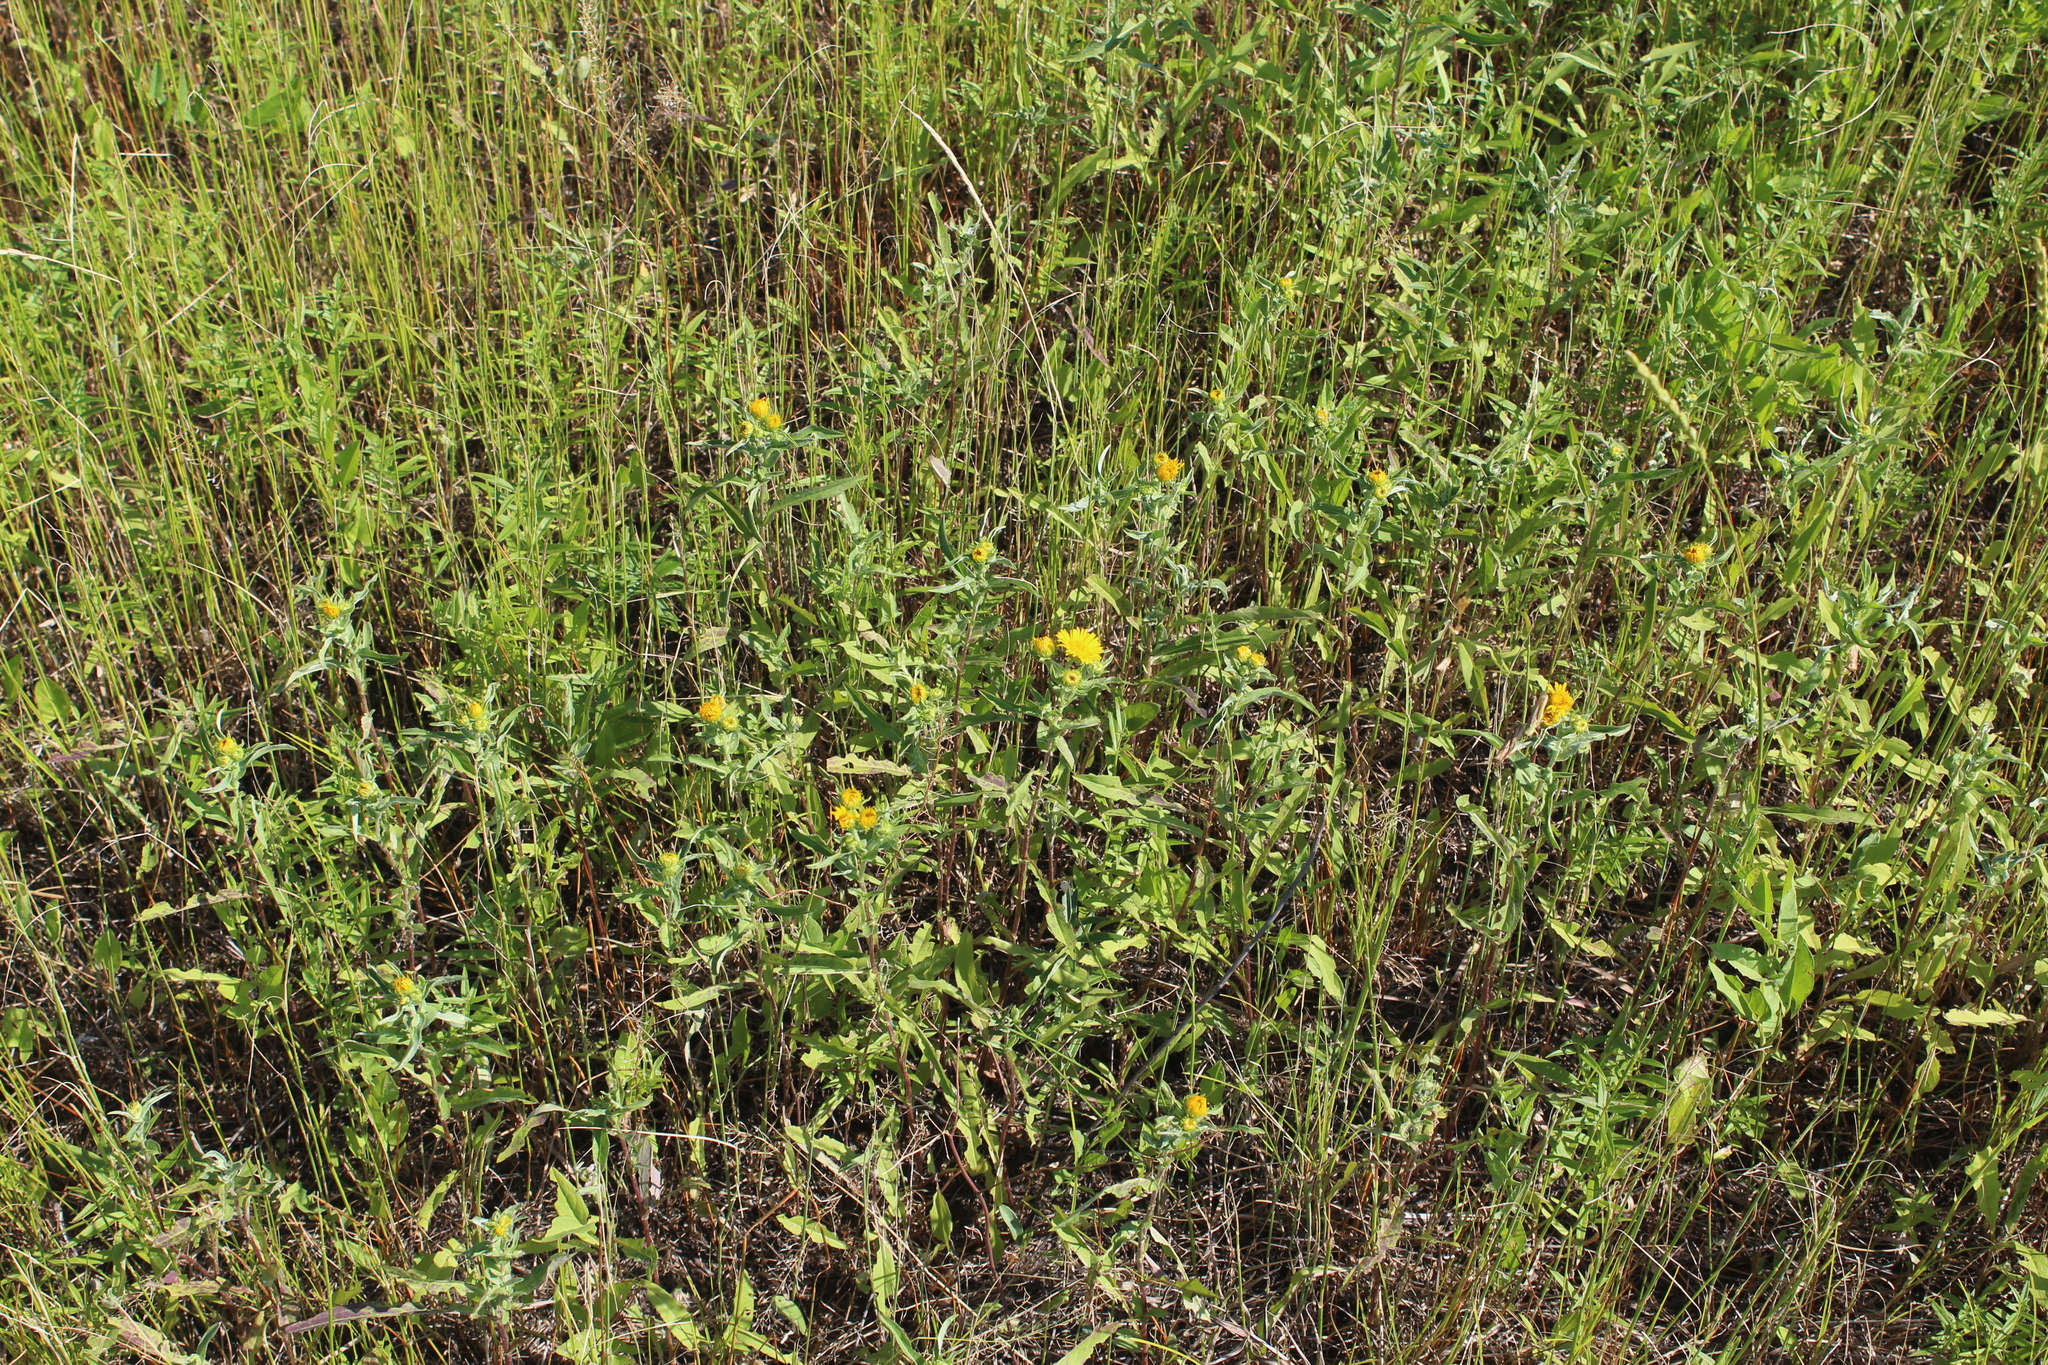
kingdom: Plantae
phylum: Tracheophyta
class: Magnoliopsida
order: Asterales
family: Asteraceae
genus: Pentanema
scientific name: Pentanema britannicum
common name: British elecampane
